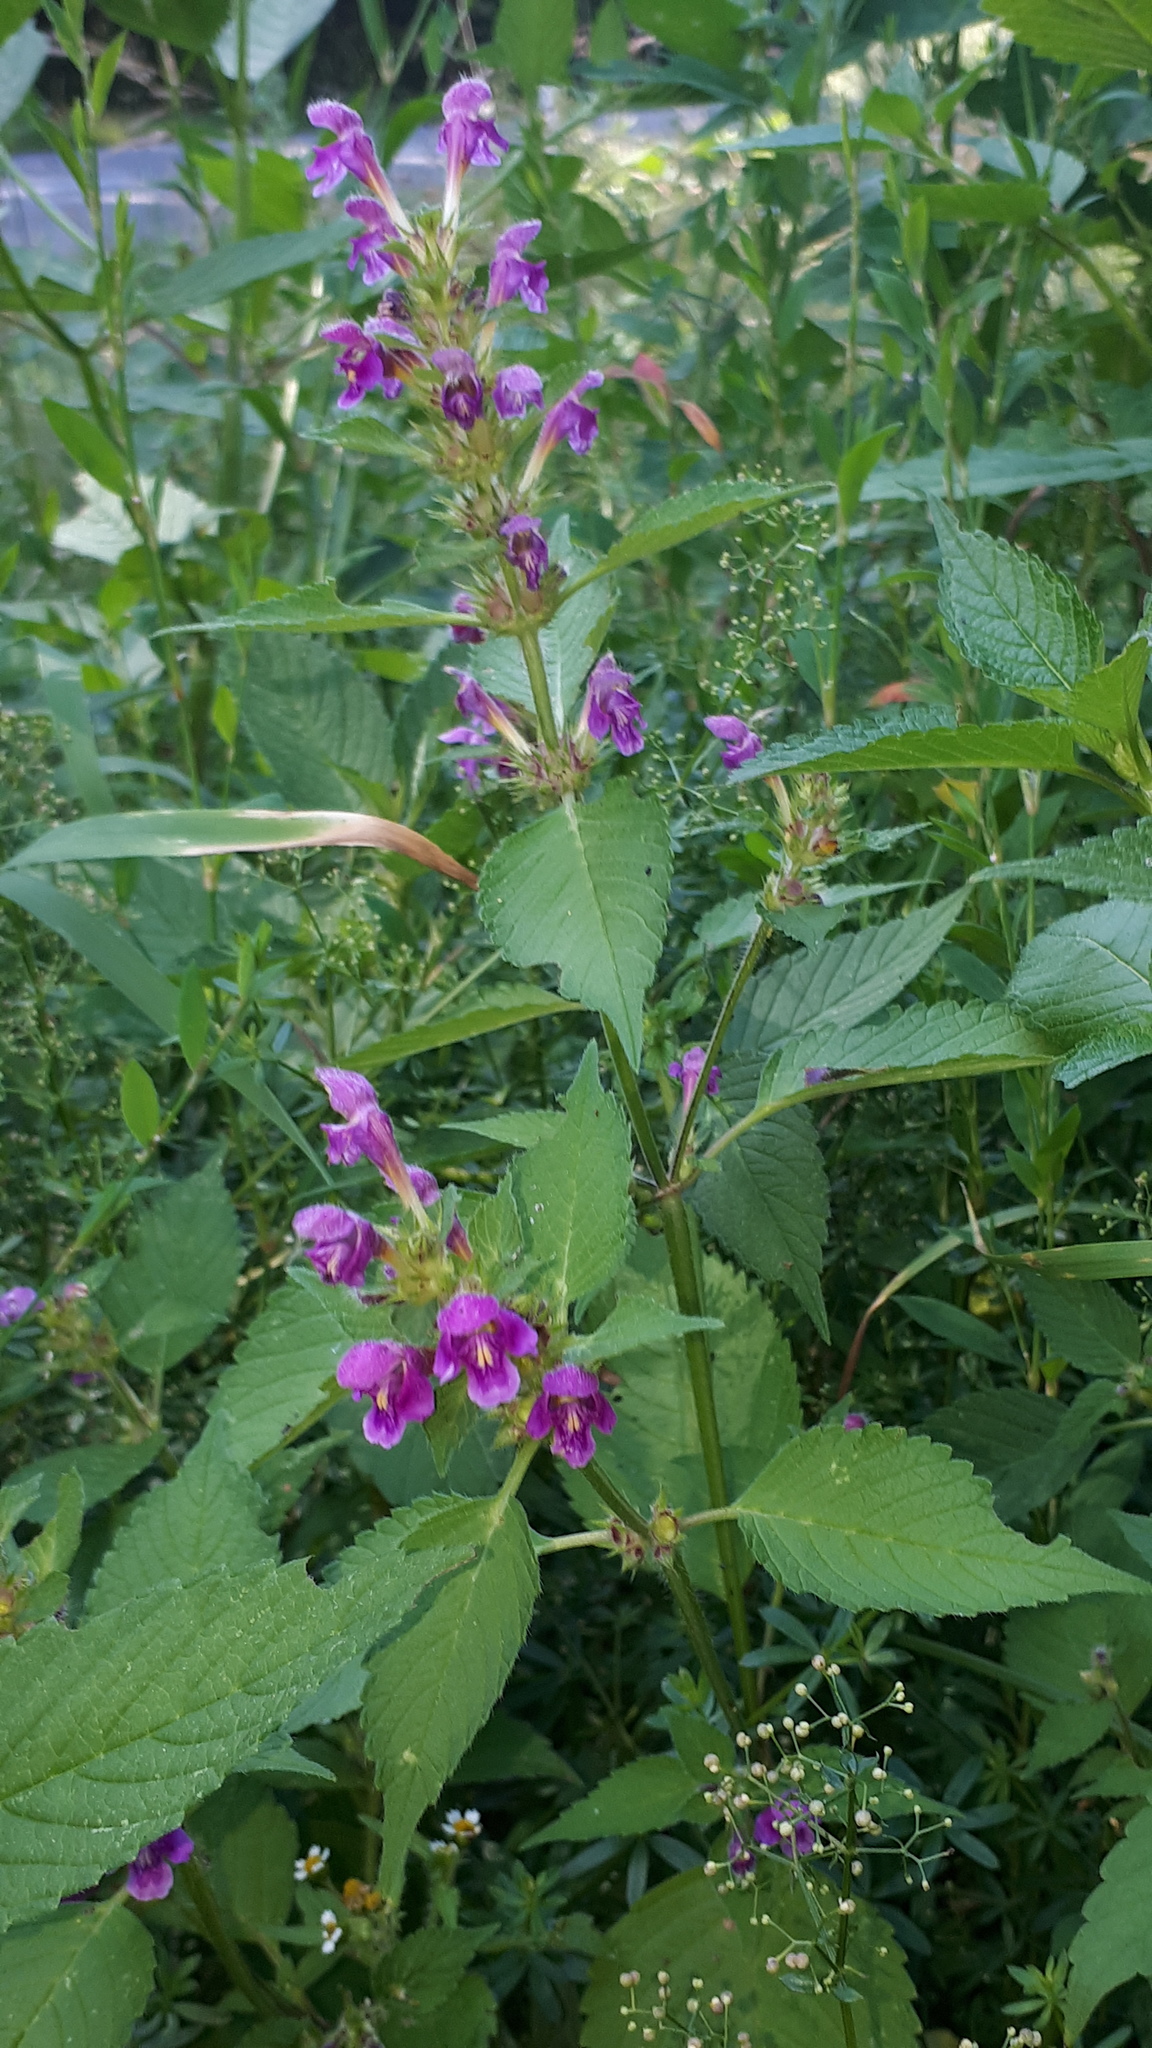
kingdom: Plantae
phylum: Tracheophyta
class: Magnoliopsida
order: Lamiales
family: Lamiaceae
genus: Galeopsis
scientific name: Galeopsis pubescens
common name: Downy hemp-nettle
